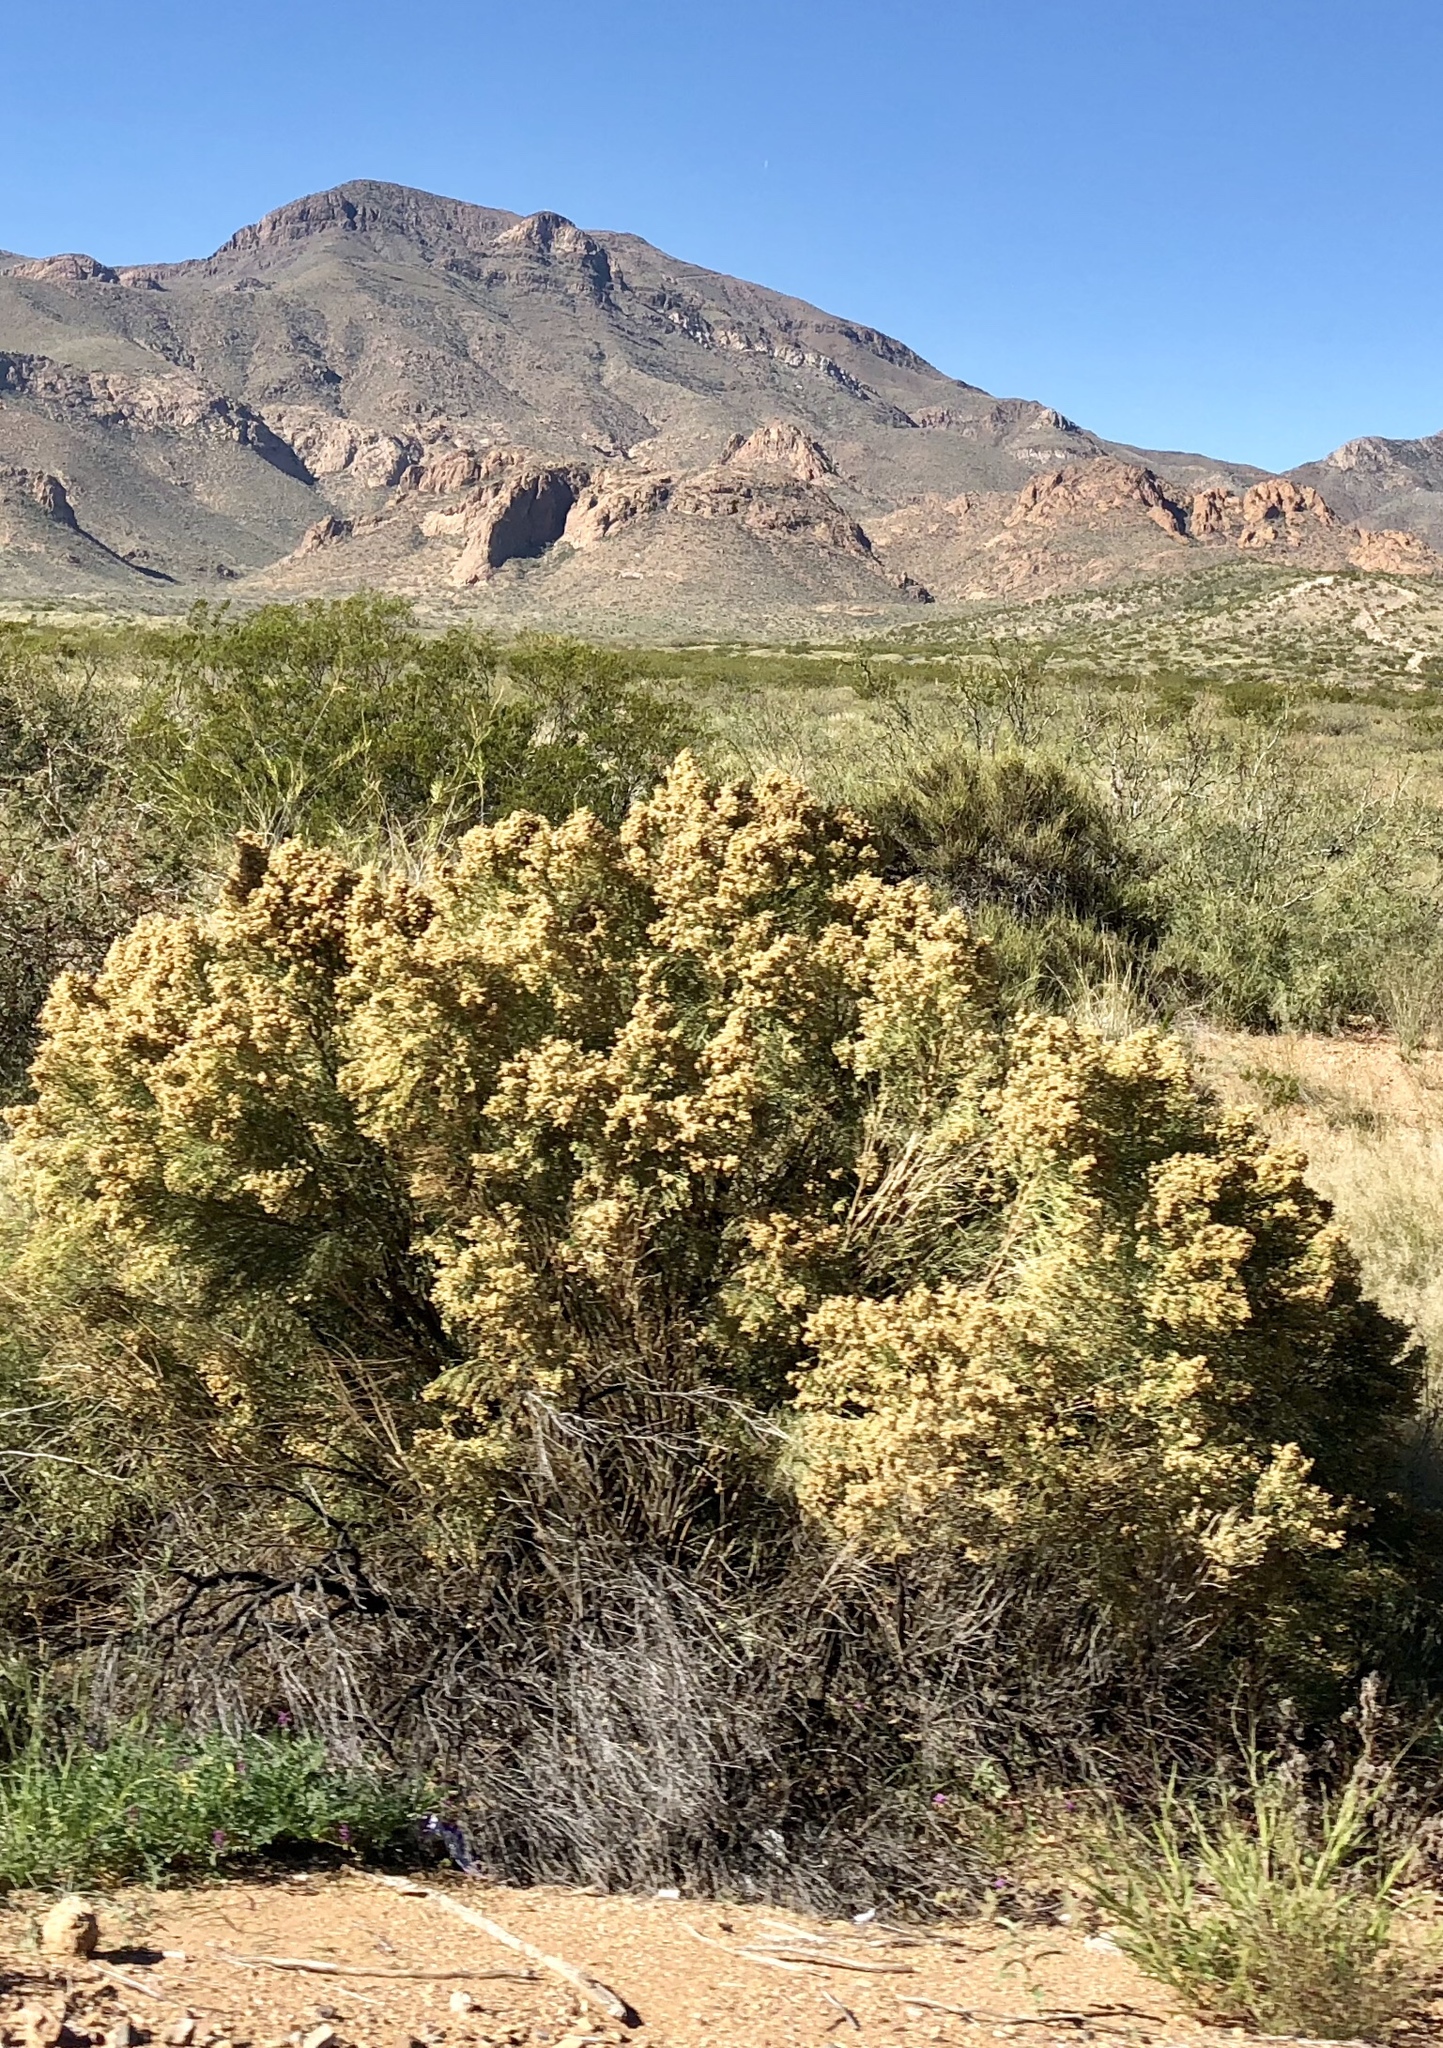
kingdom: Plantae
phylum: Tracheophyta
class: Magnoliopsida
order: Asterales
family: Asteraceae
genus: Baccharis
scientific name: Baccharis sarothroides
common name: Desert-broom
